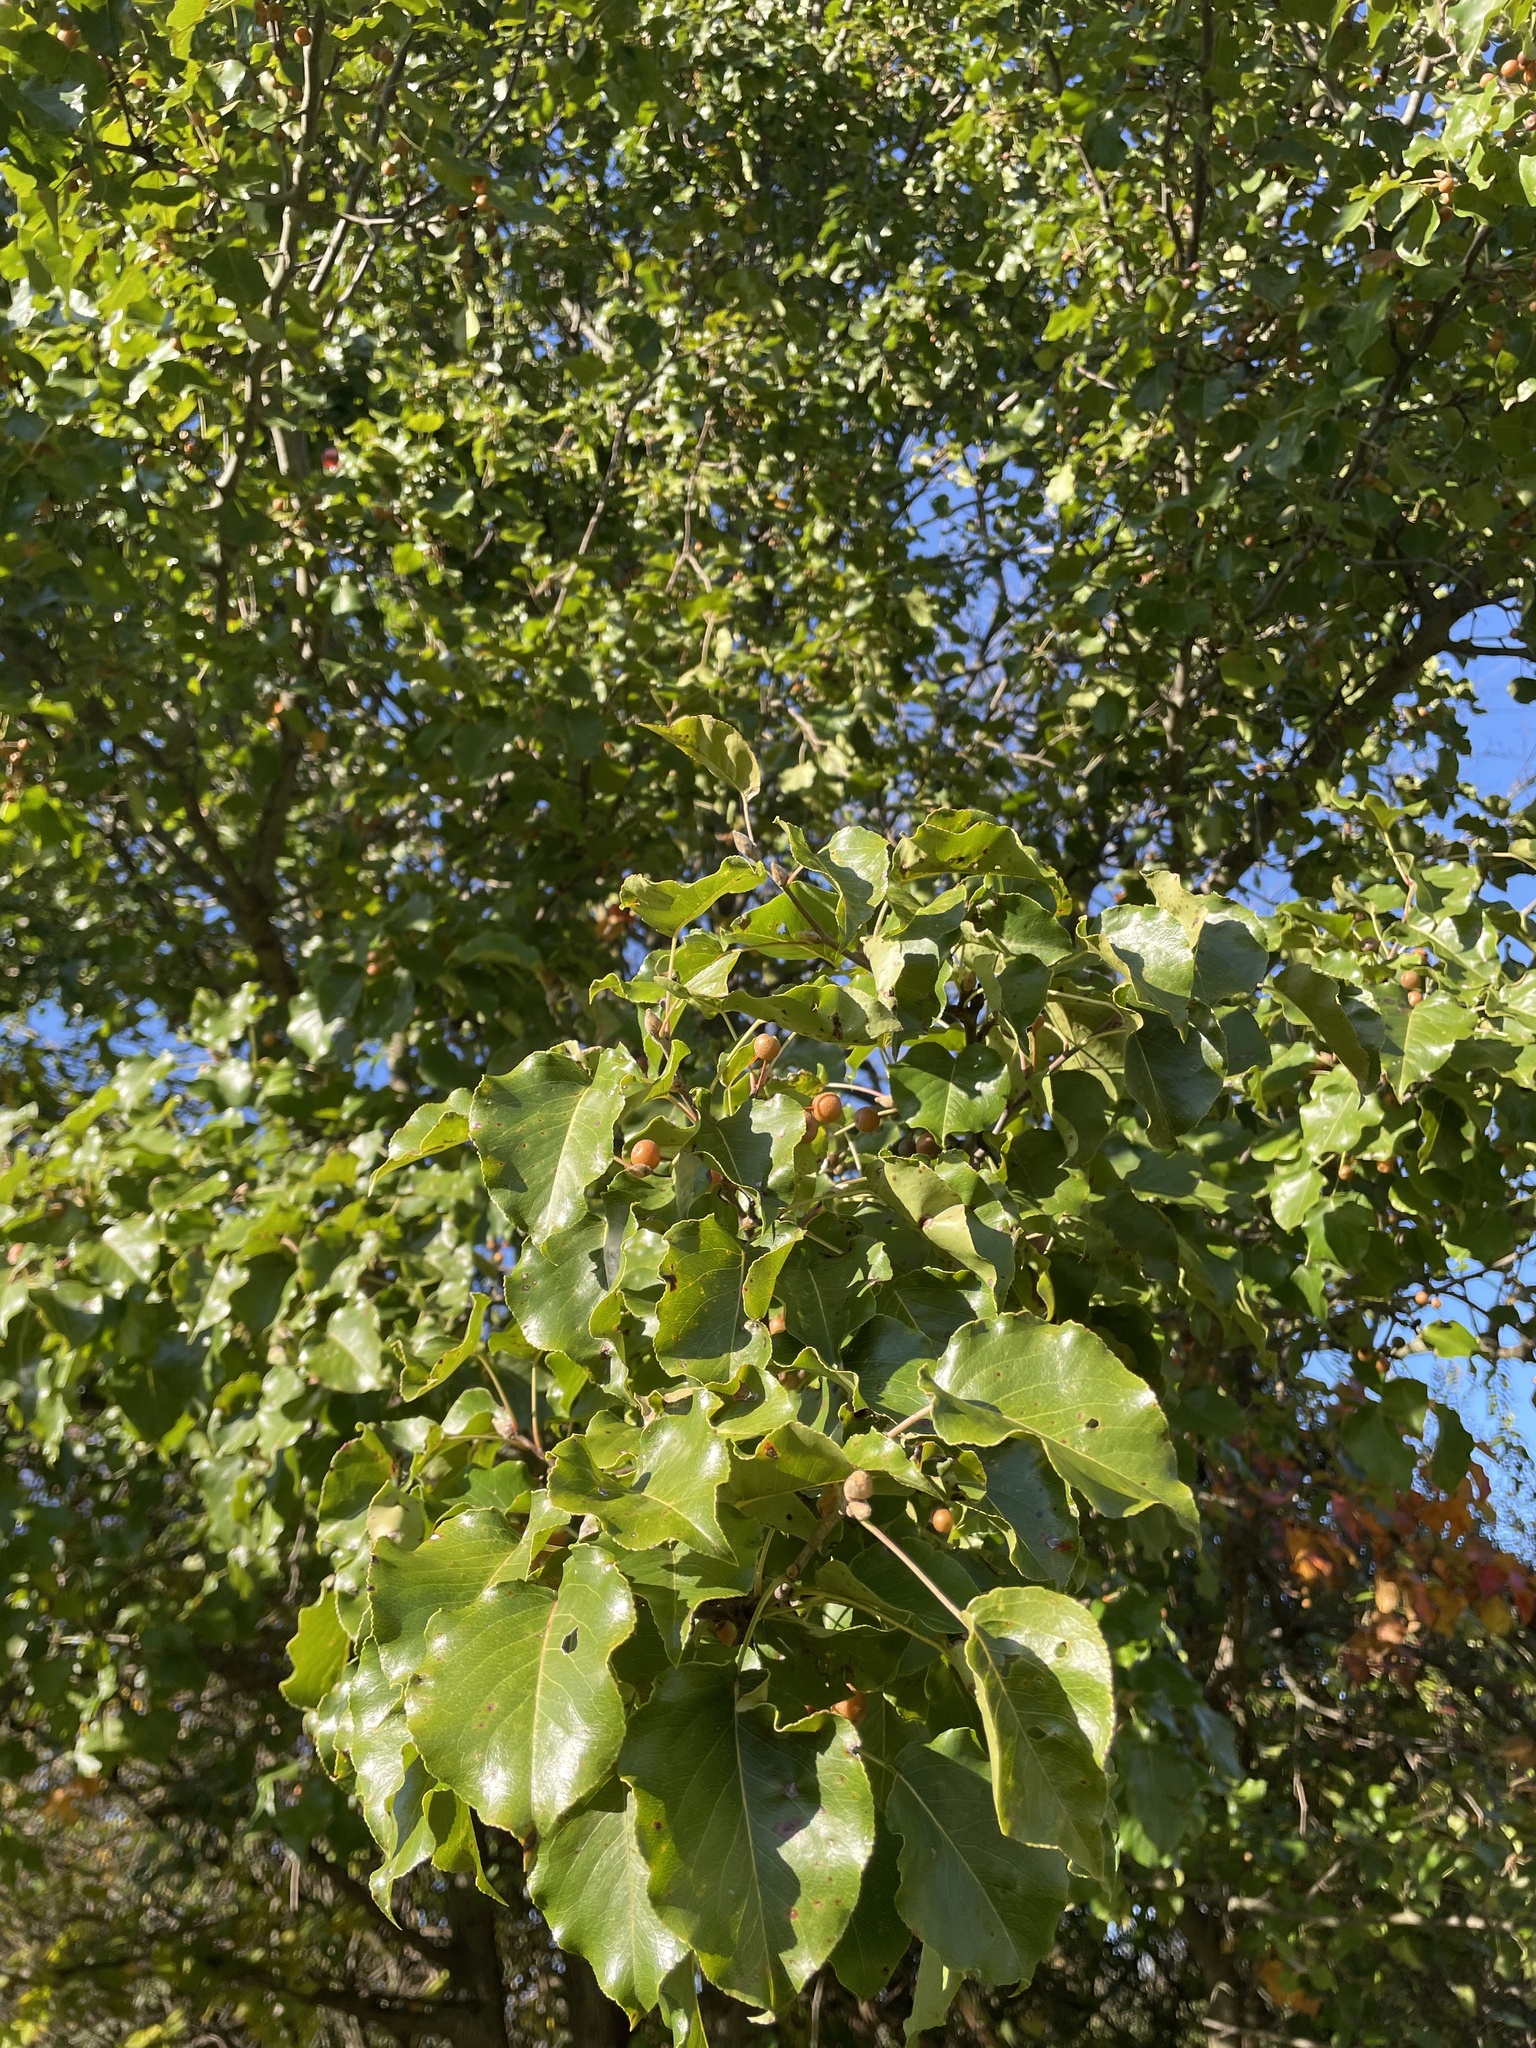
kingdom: Plantae
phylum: Tracheophyta
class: Magnoliopsida
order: Rosales
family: Rosaceae
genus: Pyrus
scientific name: Pyrus calleryana
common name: Callery pear
